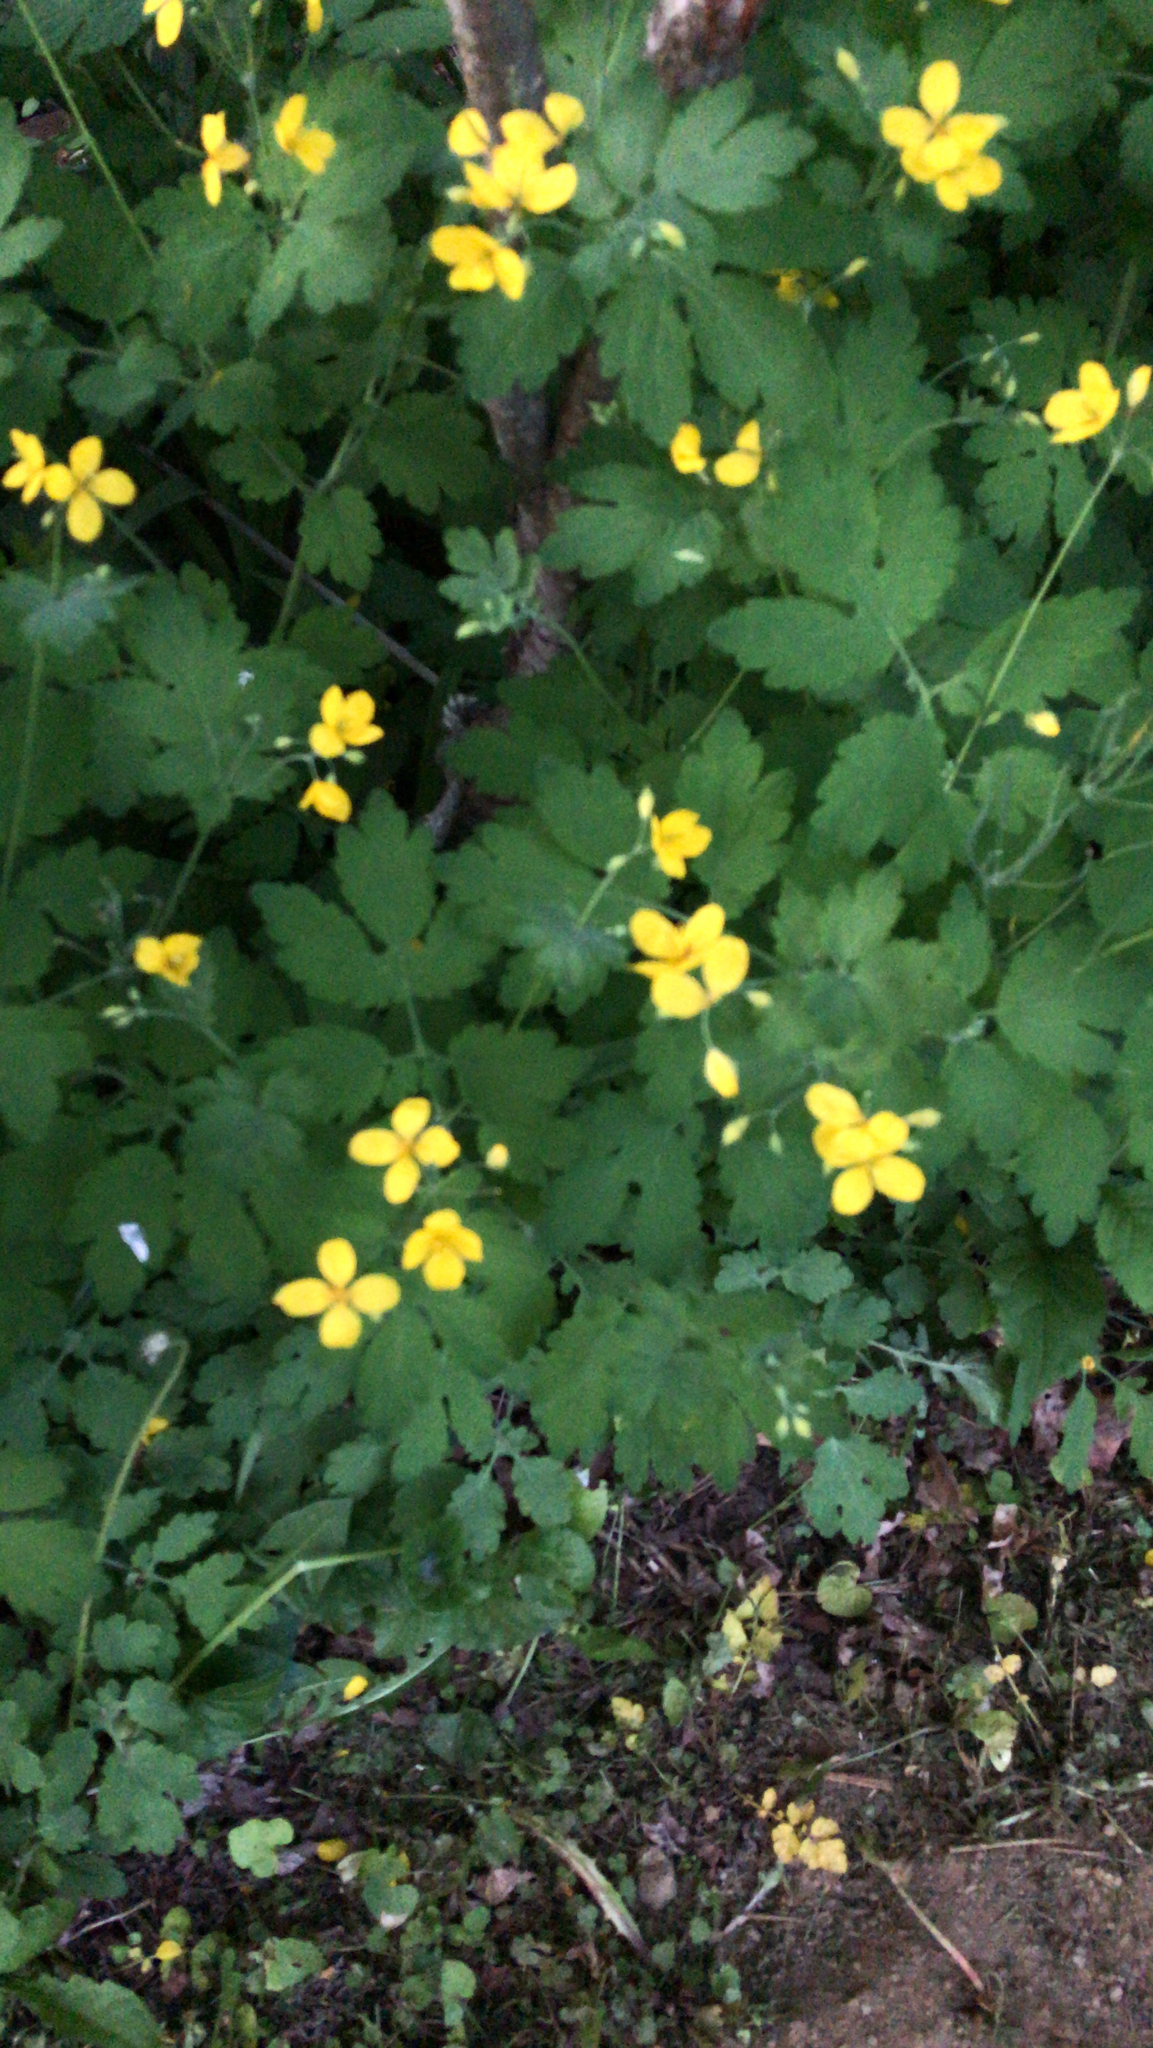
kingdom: Plantae
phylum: Tracheophyta
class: Magnoliopsida
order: Ranunculales
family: Papaveraceae
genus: Chelidonium
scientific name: Chelidonium majus
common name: Greater celandine
